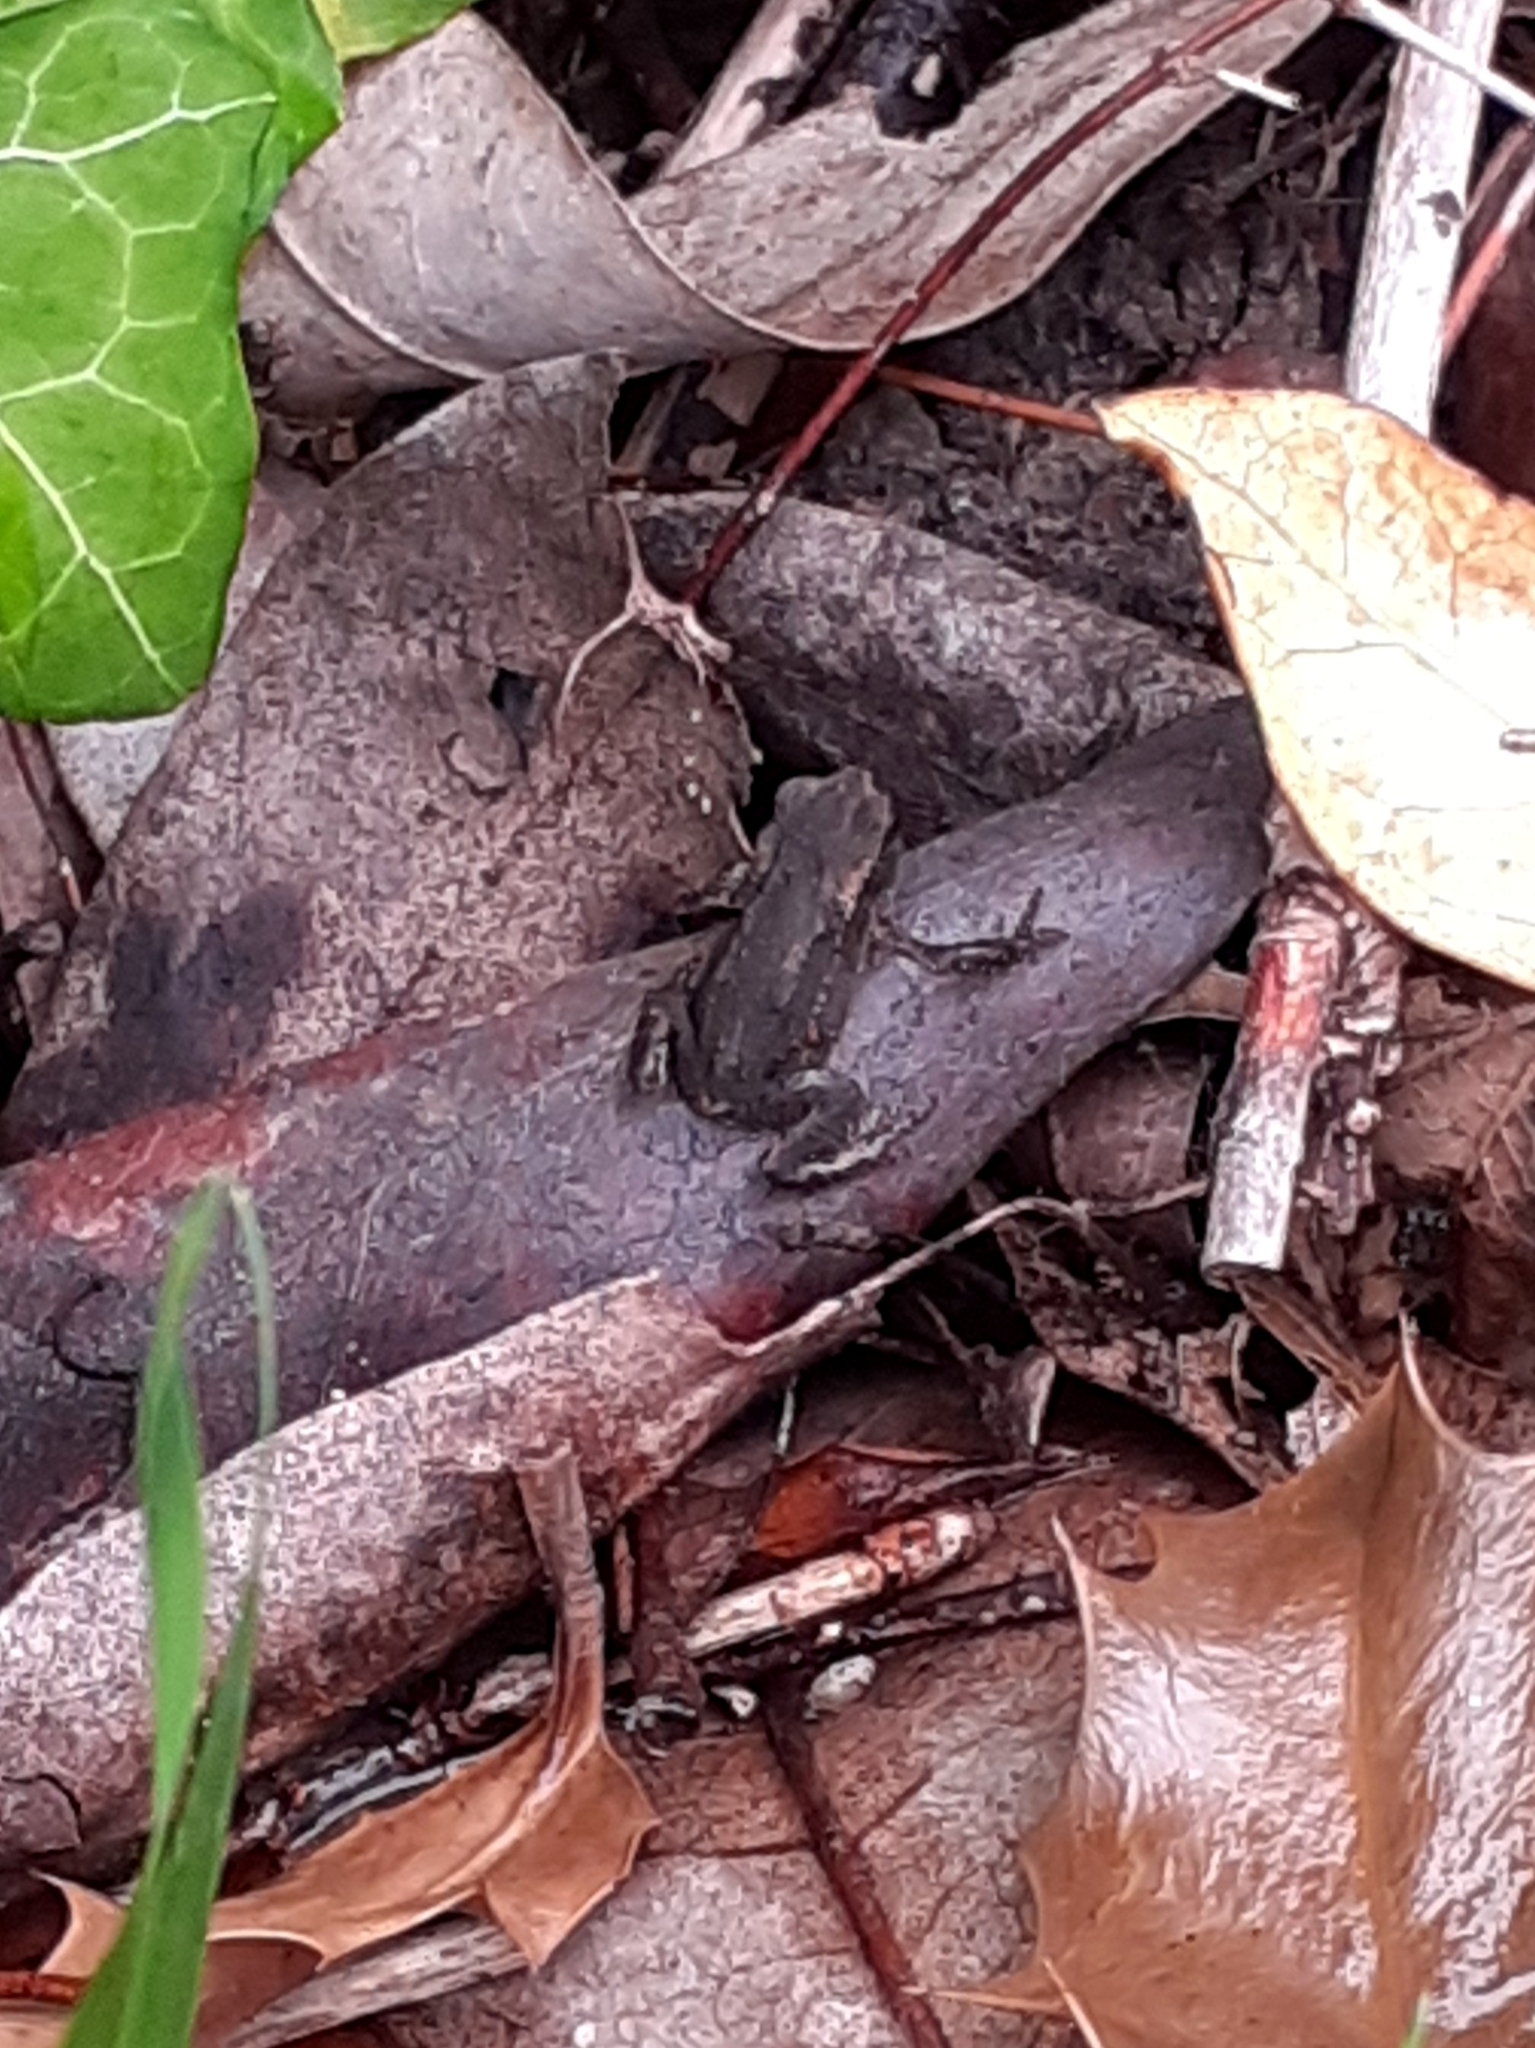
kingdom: Animalia
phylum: Chordata
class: Amphibia
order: Anura
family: Bufonidae
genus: Bufo
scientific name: Bufo bufo
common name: Common toad
